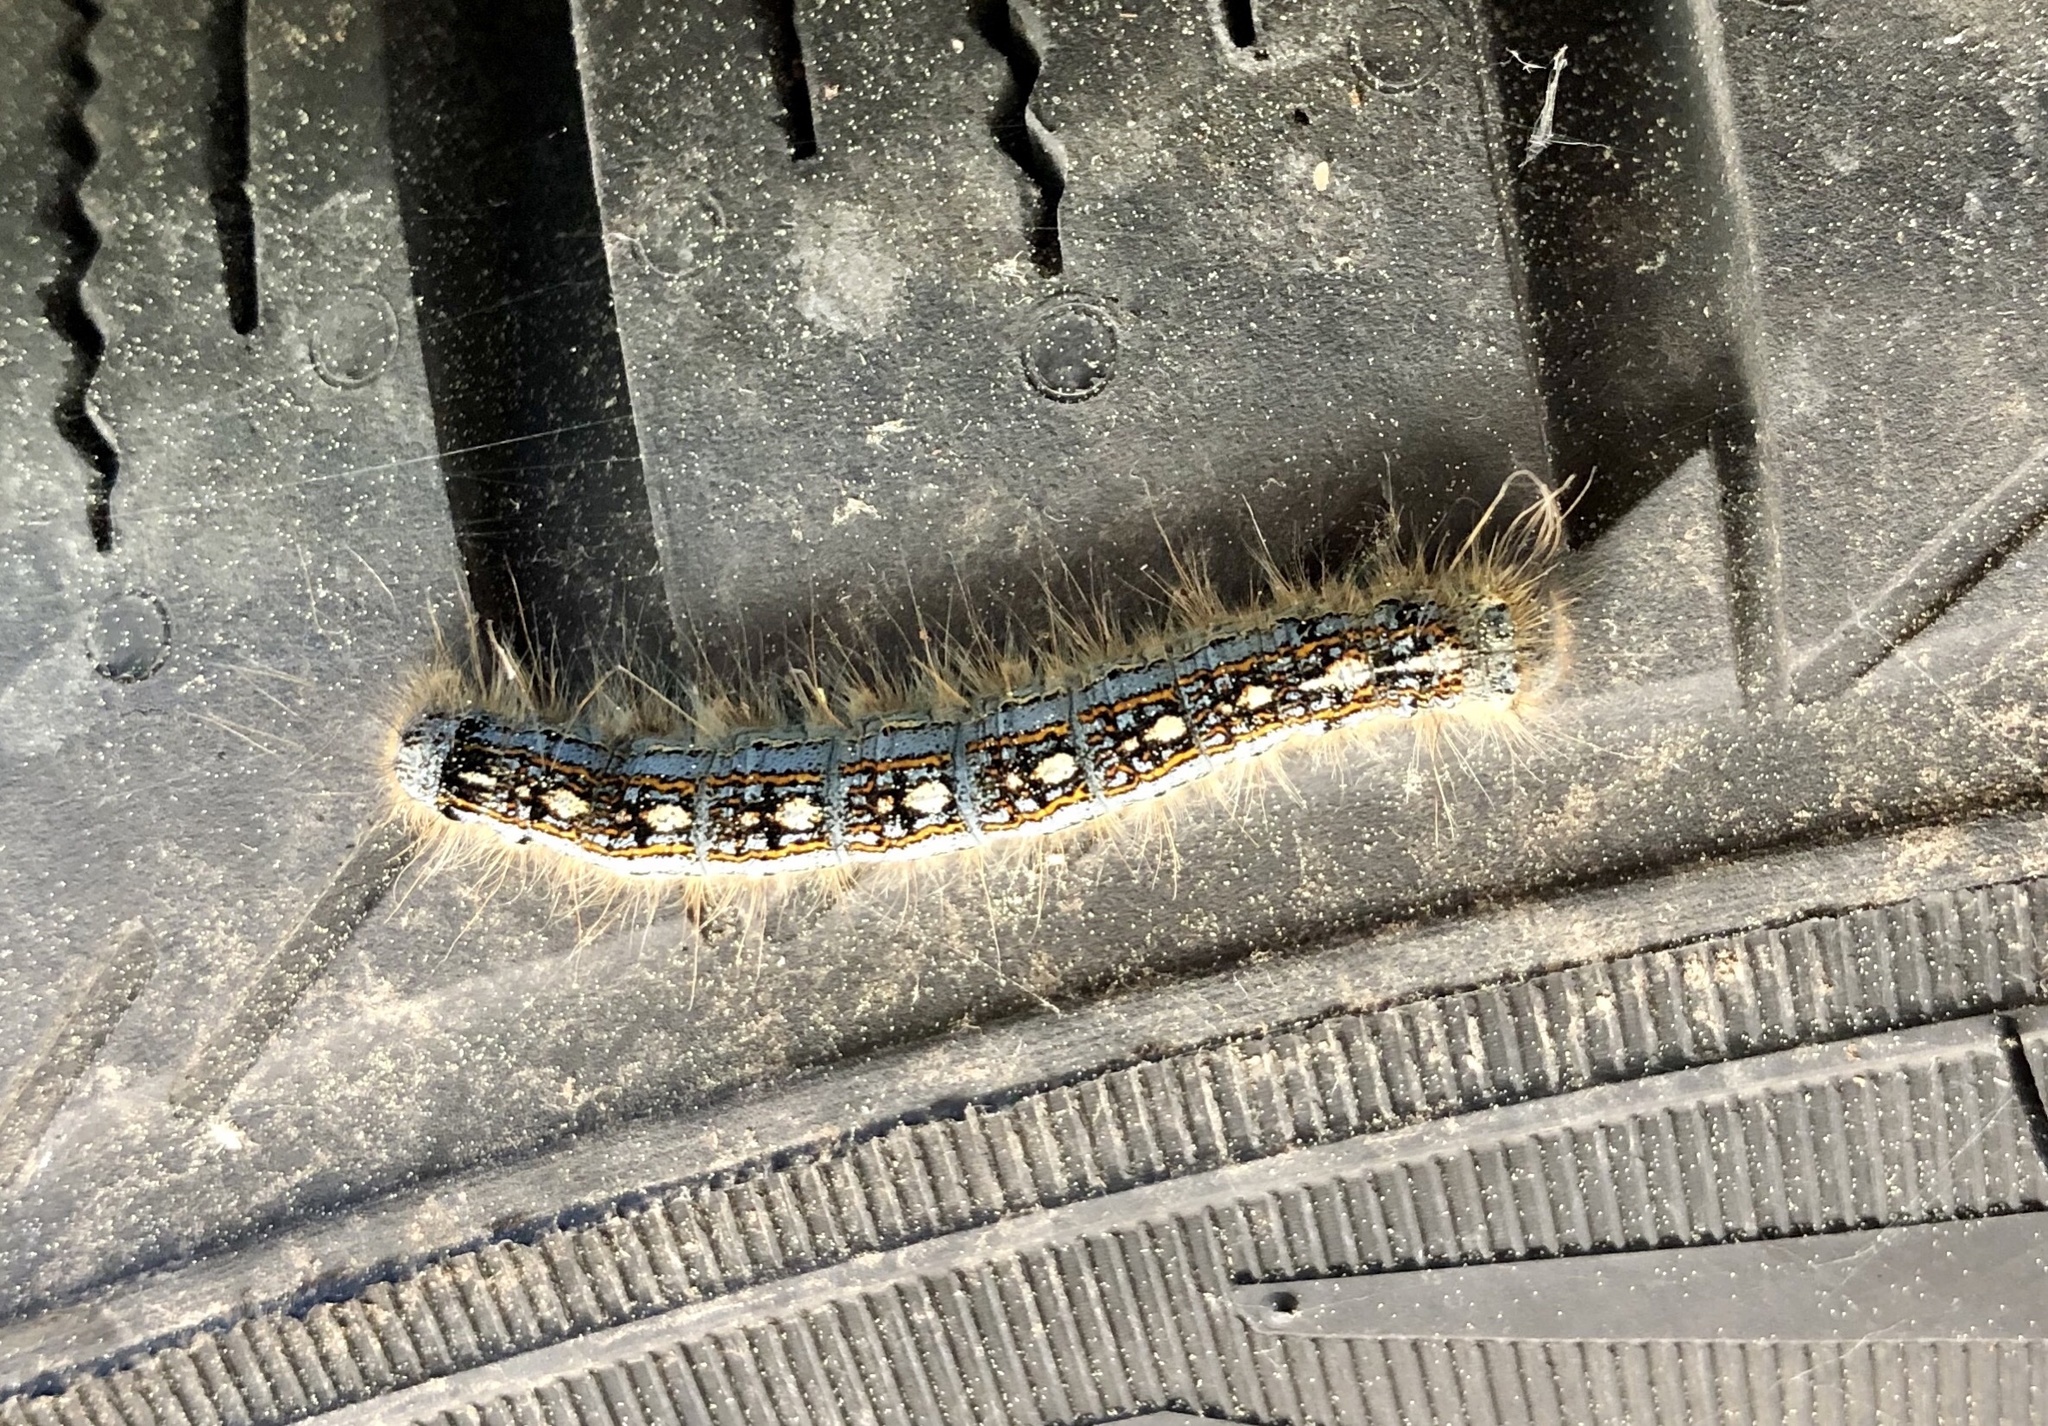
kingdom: Animalia
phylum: Arthropoda
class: Insecta
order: Lepidoptera
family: Lasiocampidae
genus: Malacosoma
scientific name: Malacosoma disstria
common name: Forest tent caterpillar
